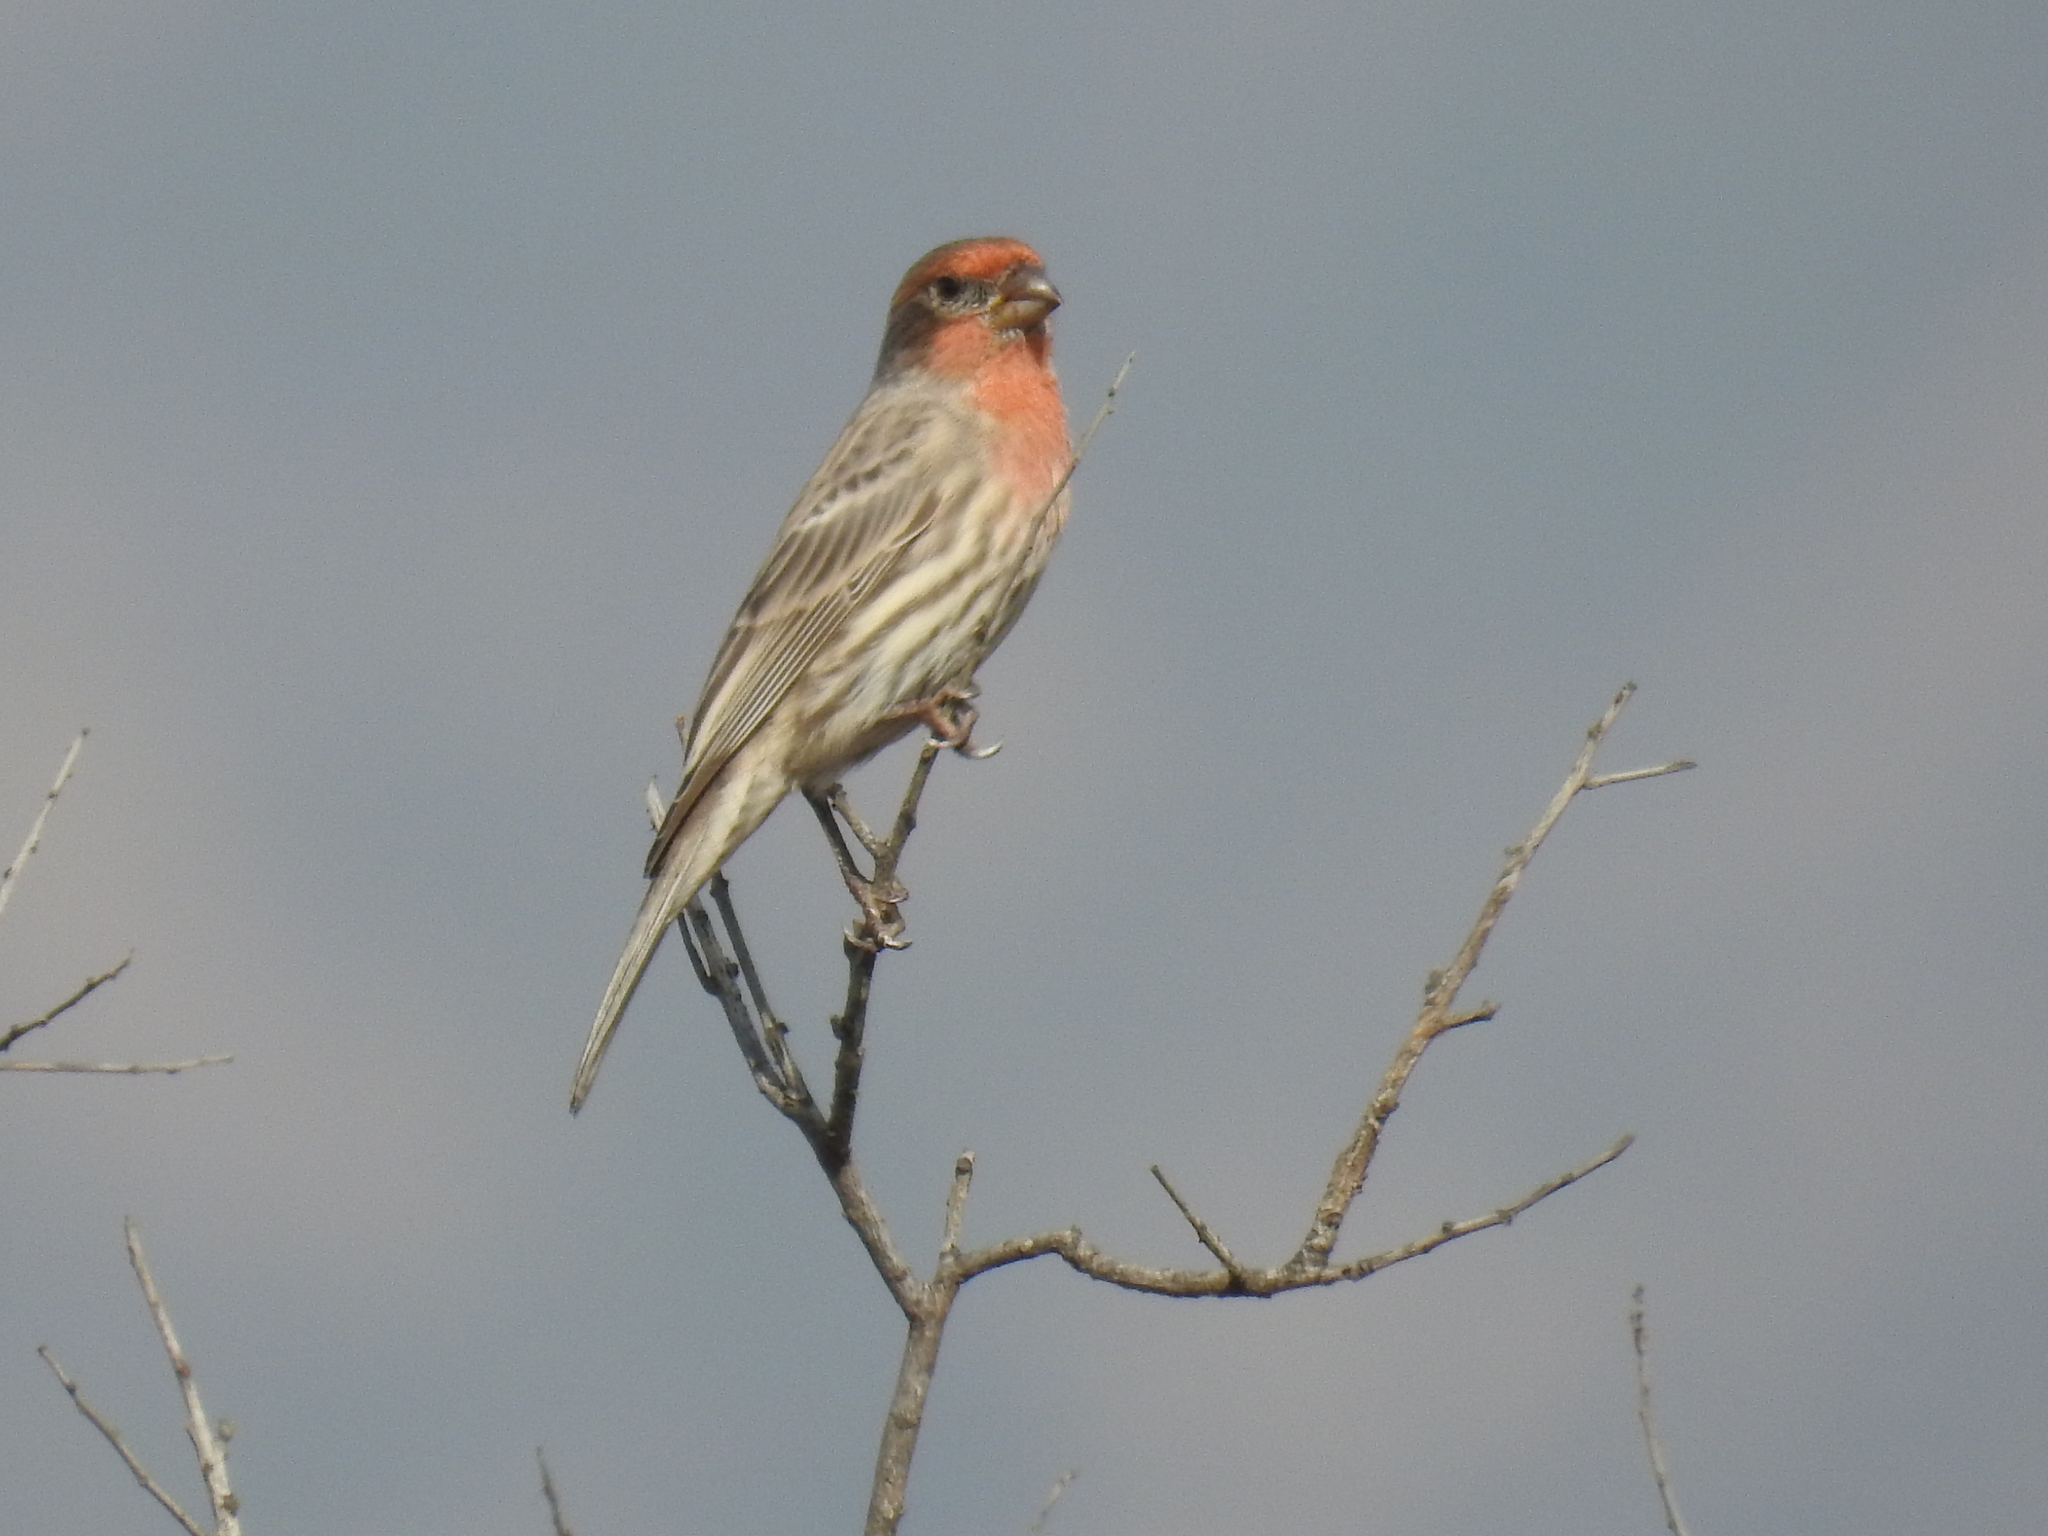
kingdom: Animalia
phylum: Chordata
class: Aves
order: Passeriformes
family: Fringillidae
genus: Haemorhous
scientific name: Haemorhous mexicanus
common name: House finch
